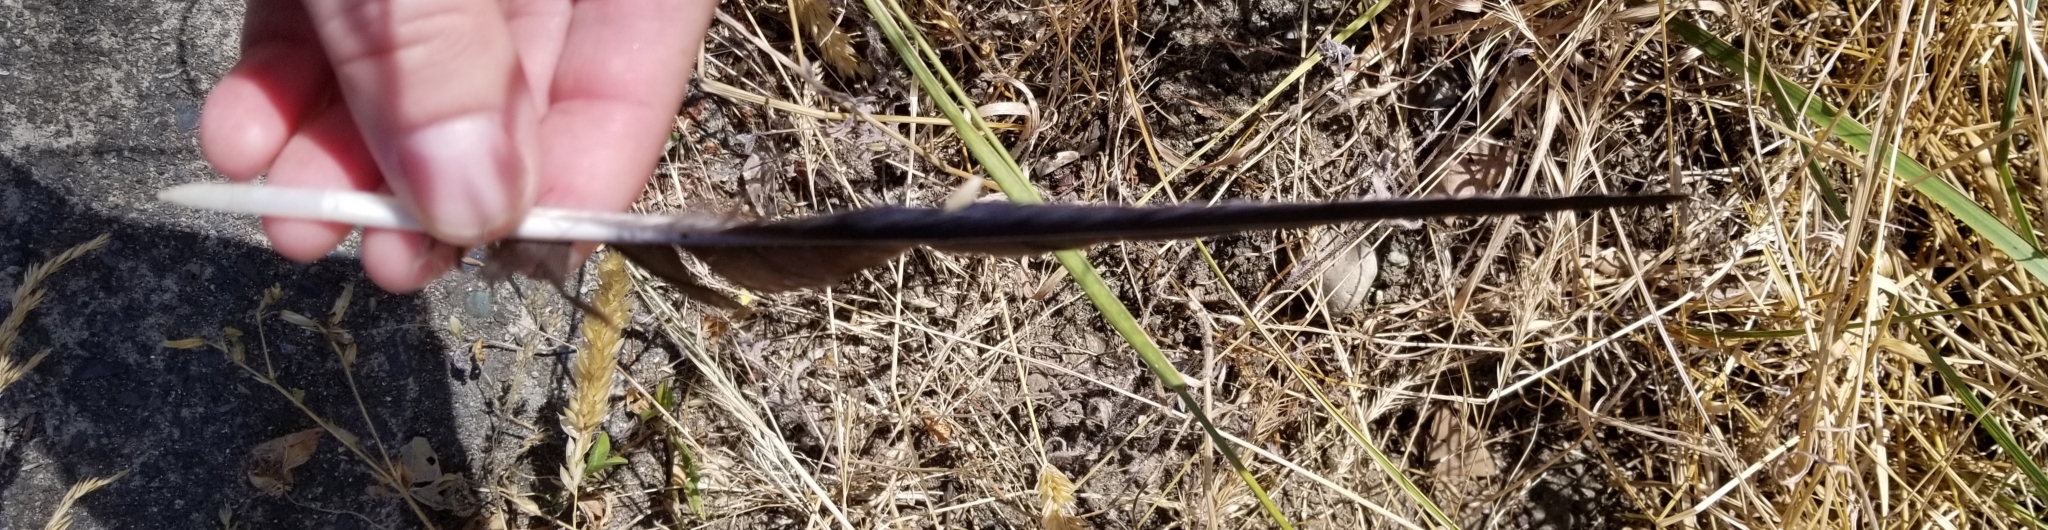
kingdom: Animalia
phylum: Chordata
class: Aves
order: Passeriformes
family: Corvidae
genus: Corvus
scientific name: Corvus brachyrhynchos
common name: American crow
